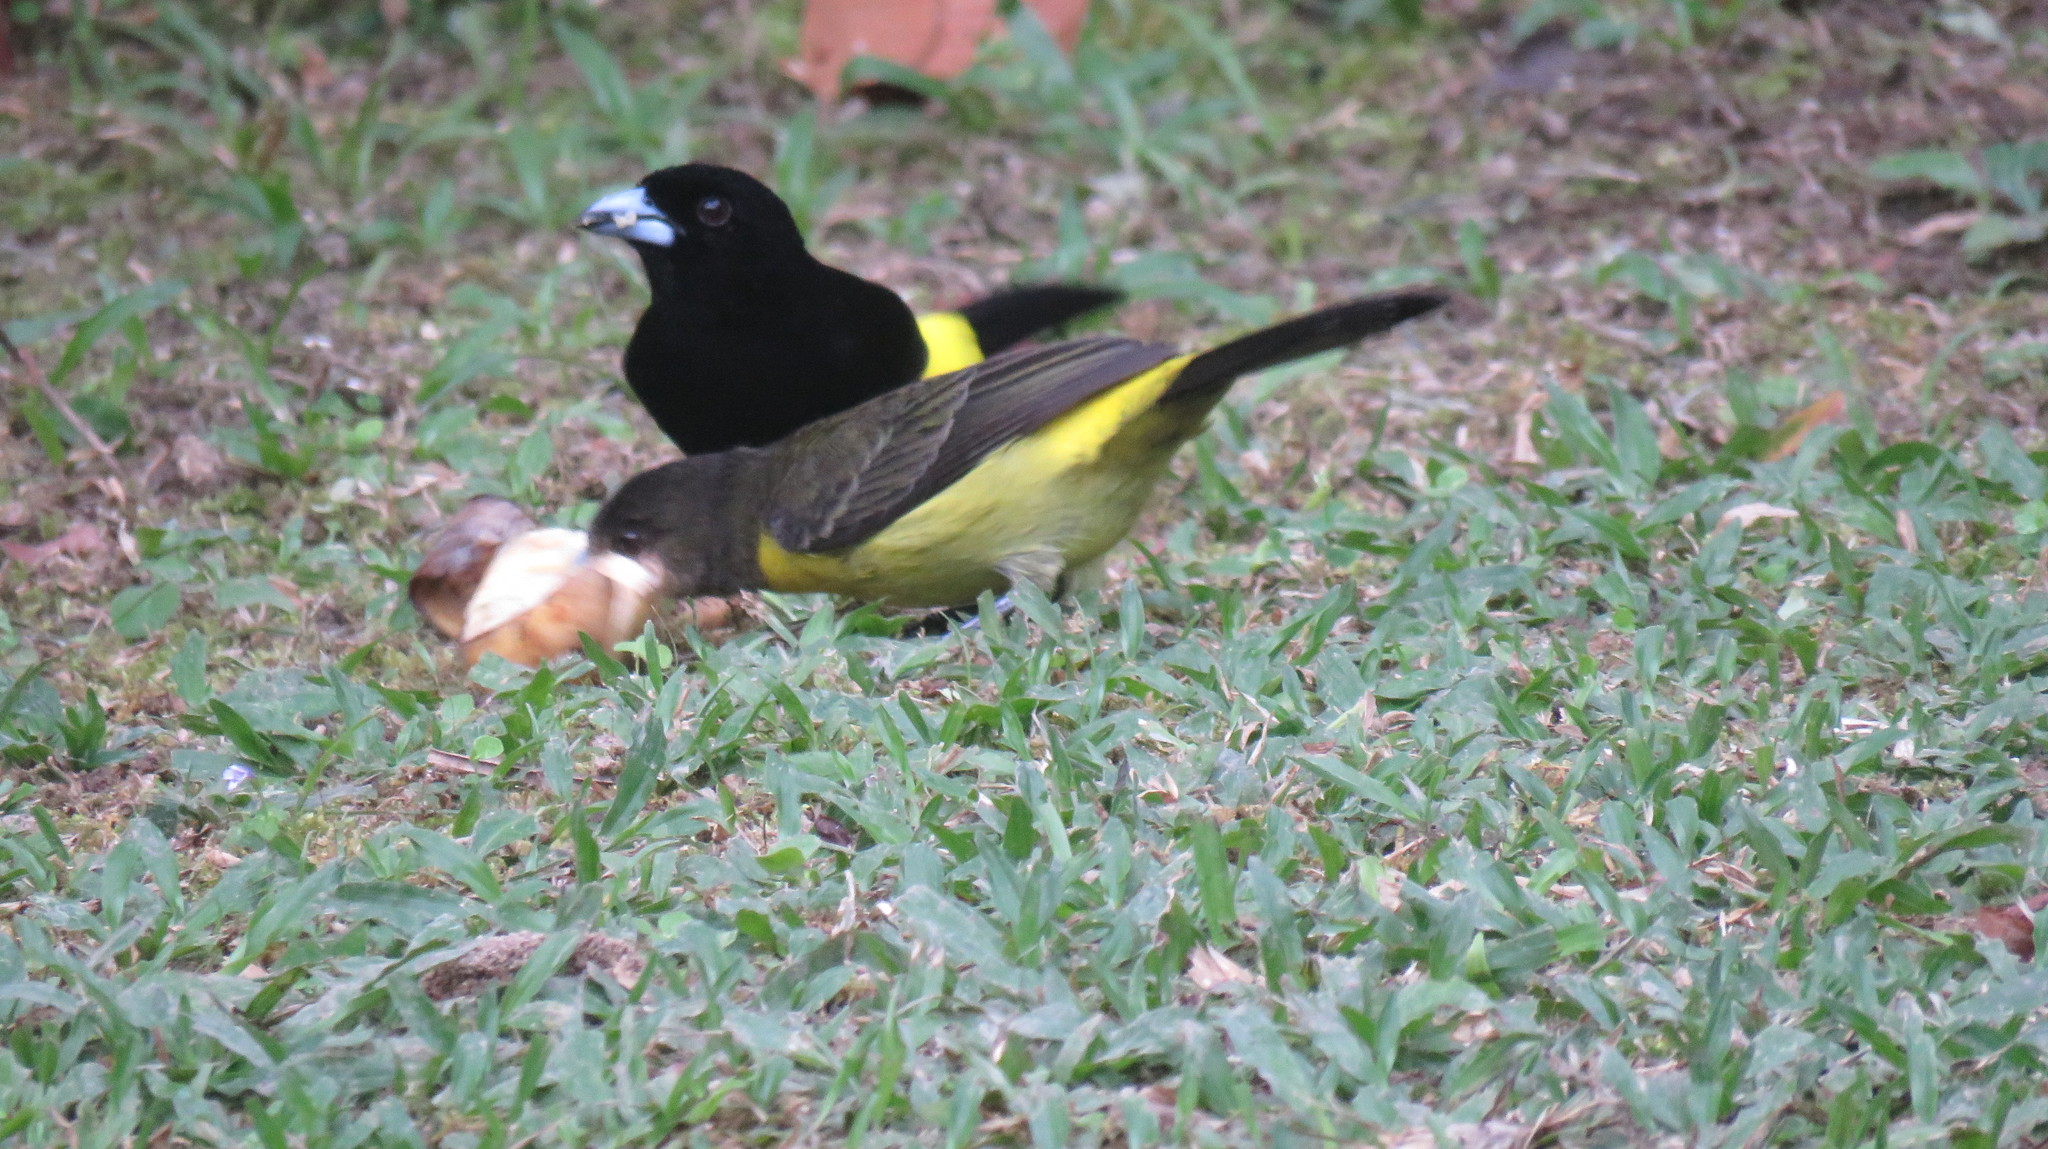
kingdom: Animalia
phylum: Chordata
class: Aves
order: Passeriformes
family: Thraupidae
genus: Ramphocelus
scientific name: Ramphocelus icteronotus
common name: Lemon-rumped tanager
